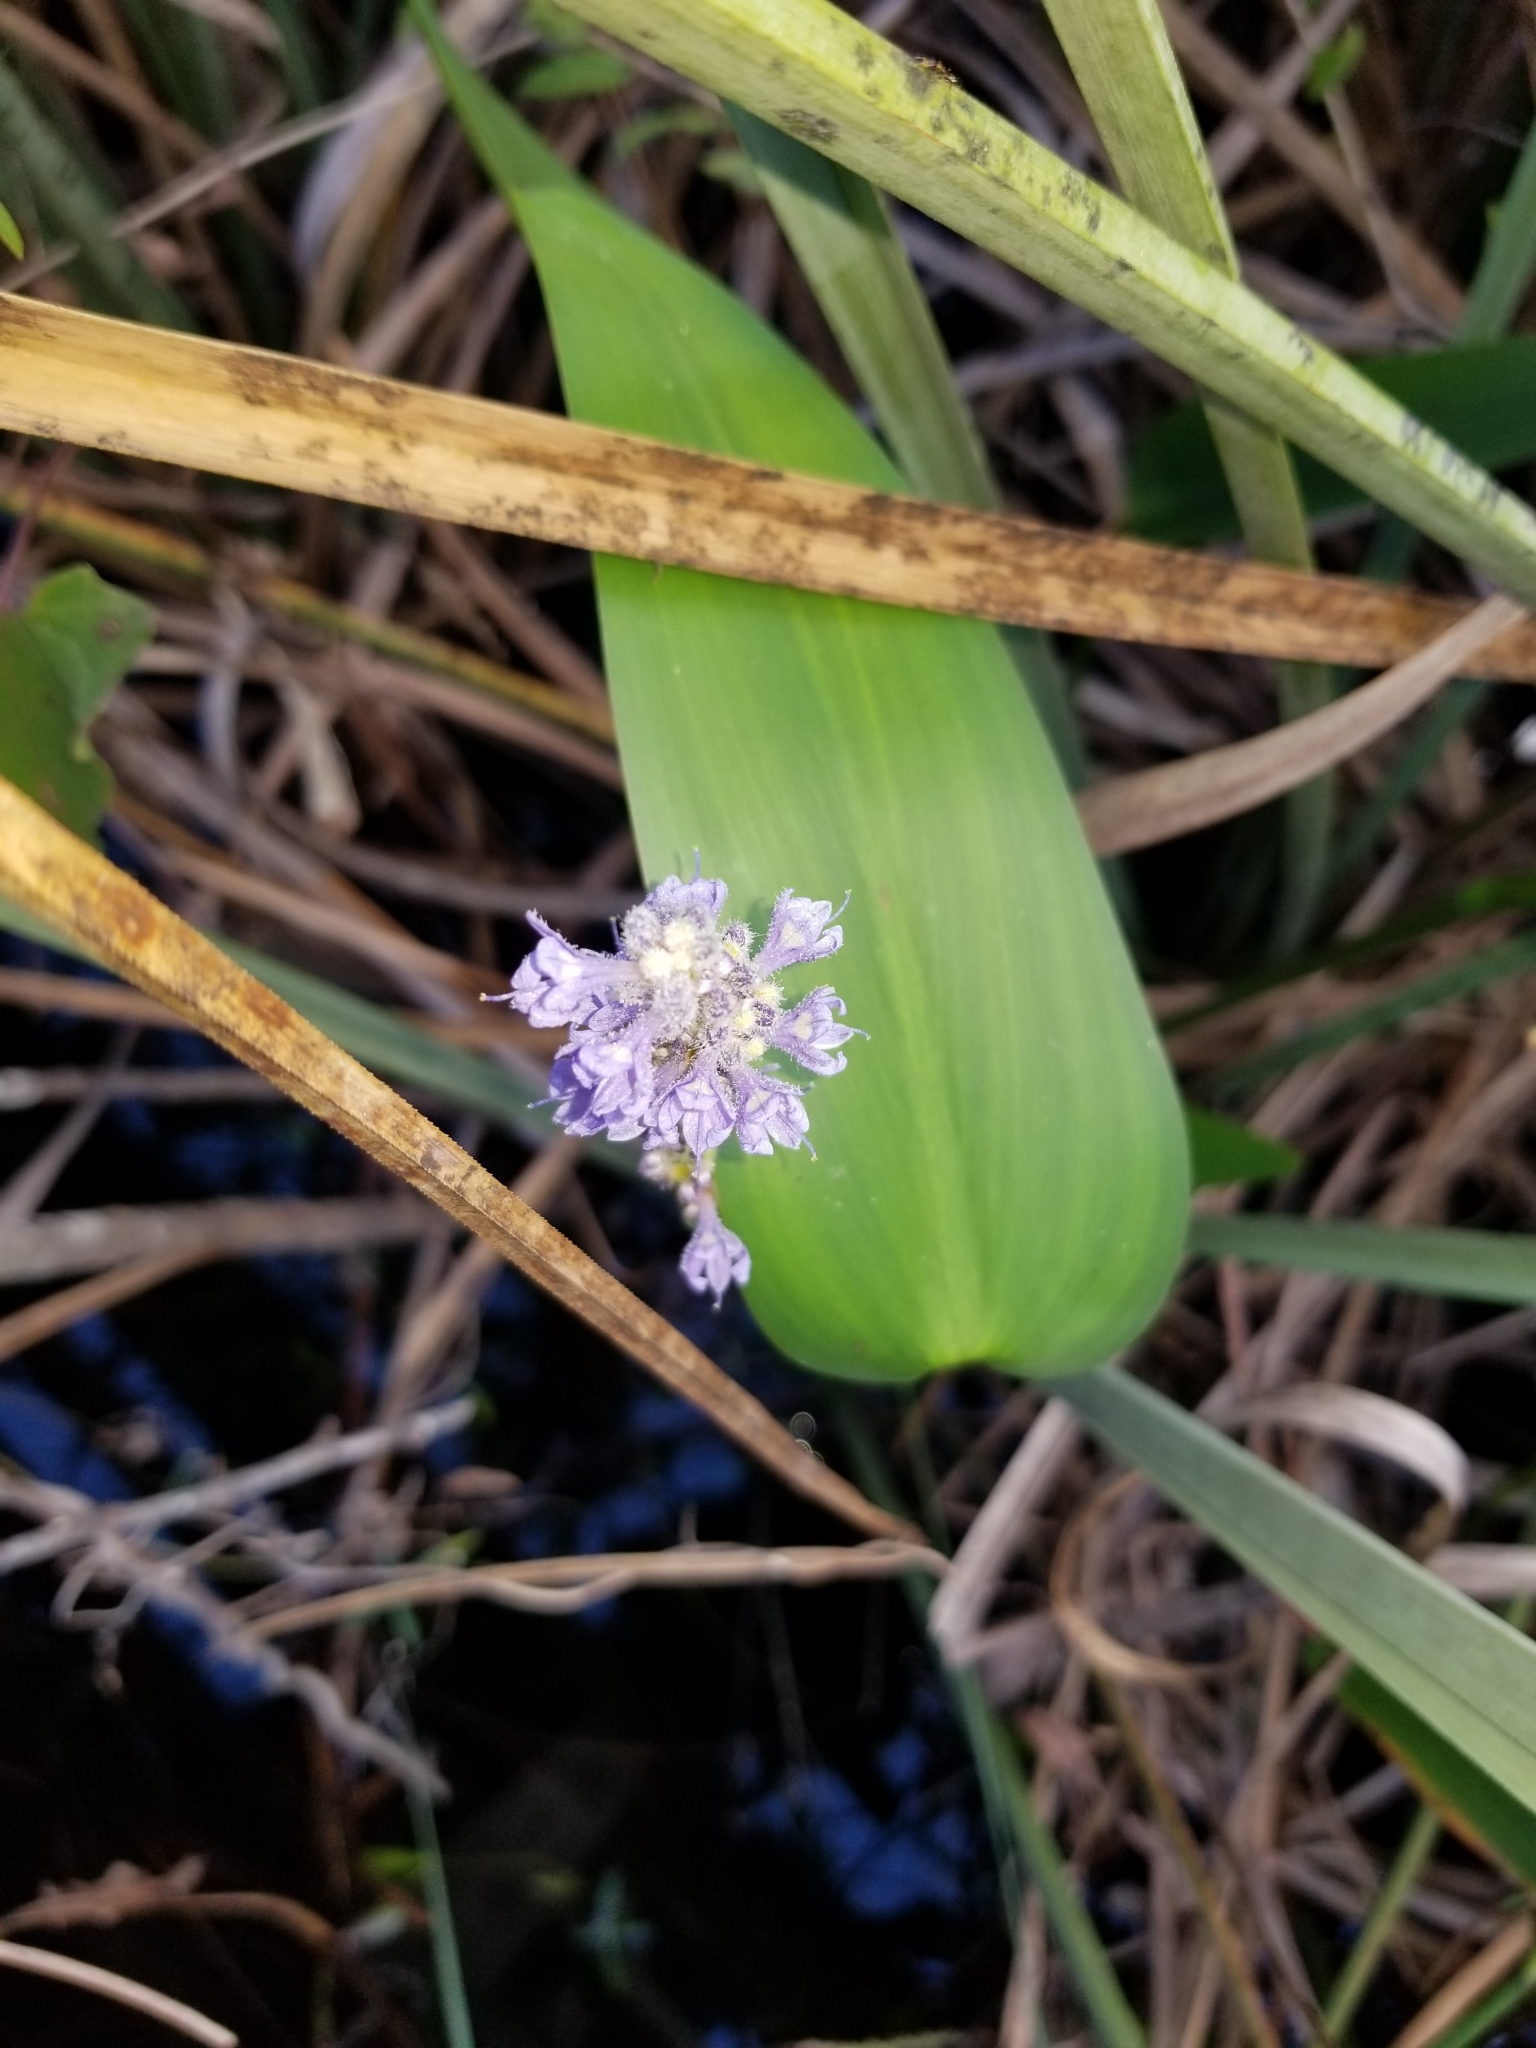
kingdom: Plantae
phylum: Tracheophyta
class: Liliopsida
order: Commelinales
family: Pontederiaceae
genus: Pontederia
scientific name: Pontederia cordata
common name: Pickerelweed
